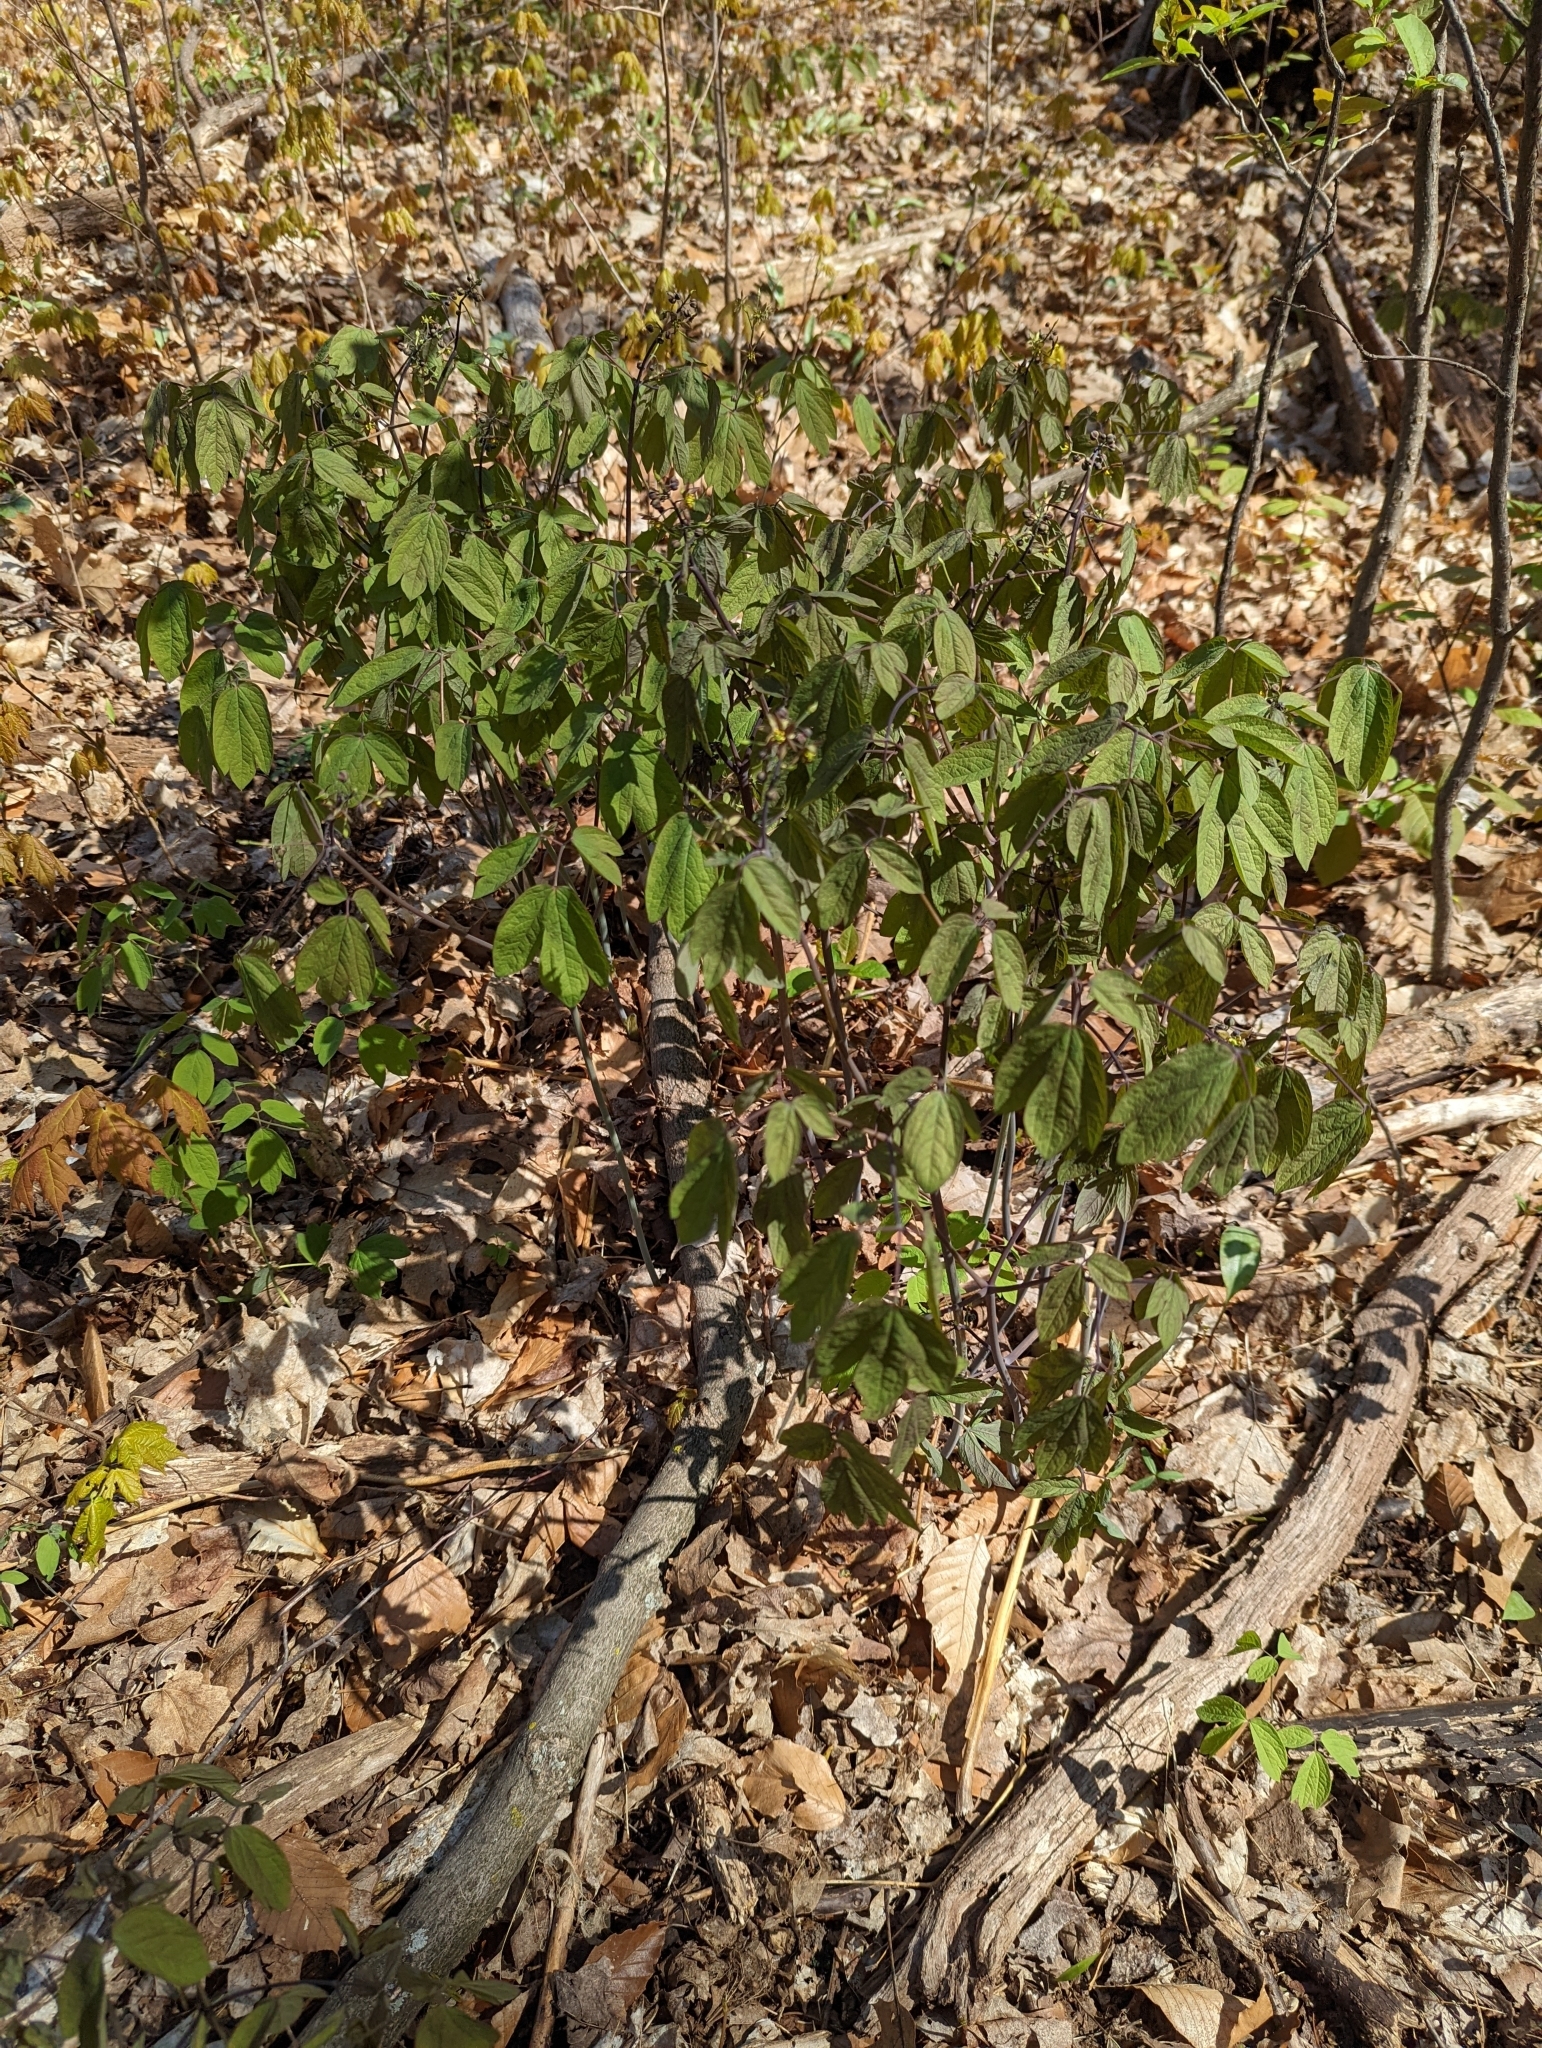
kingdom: Plantae
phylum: Tracheophyta
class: Magnoliopsida
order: Ranunculales
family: Berberidaceae
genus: Caulophyllum
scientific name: Caulophyllum giganteum
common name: Blue cohosh
